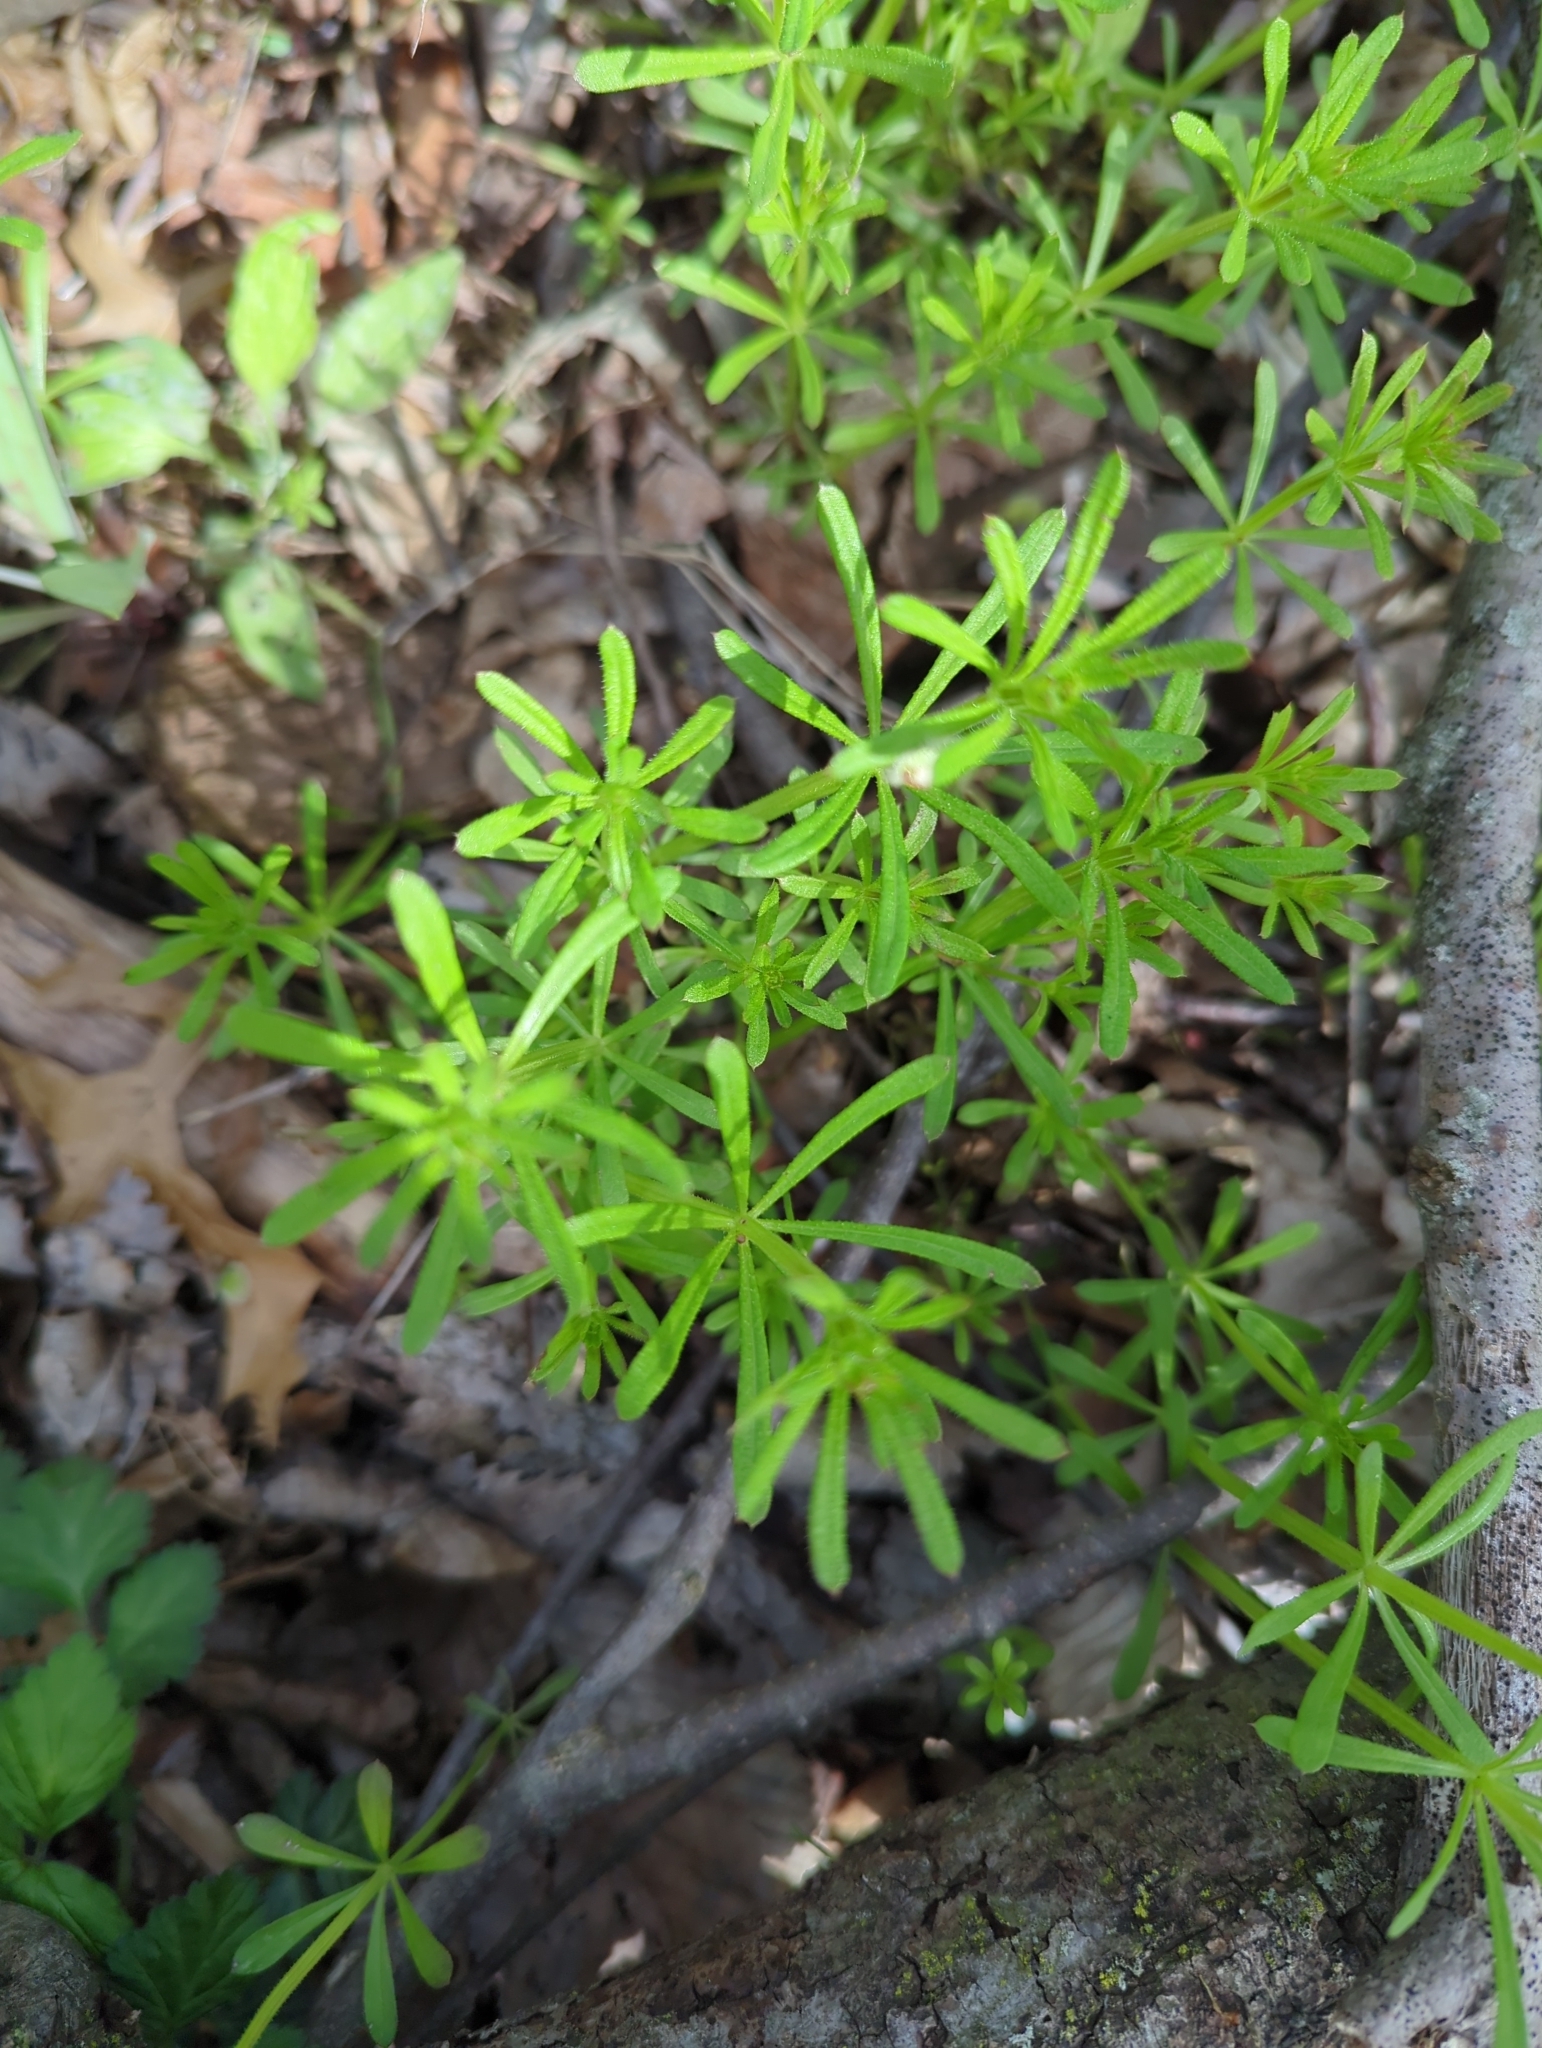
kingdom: Plantae
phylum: Tracheophyta
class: Magnoliopsida
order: Gentianales
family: Rubiaceae
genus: Galium
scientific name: Galium aparine
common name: Cleavers
